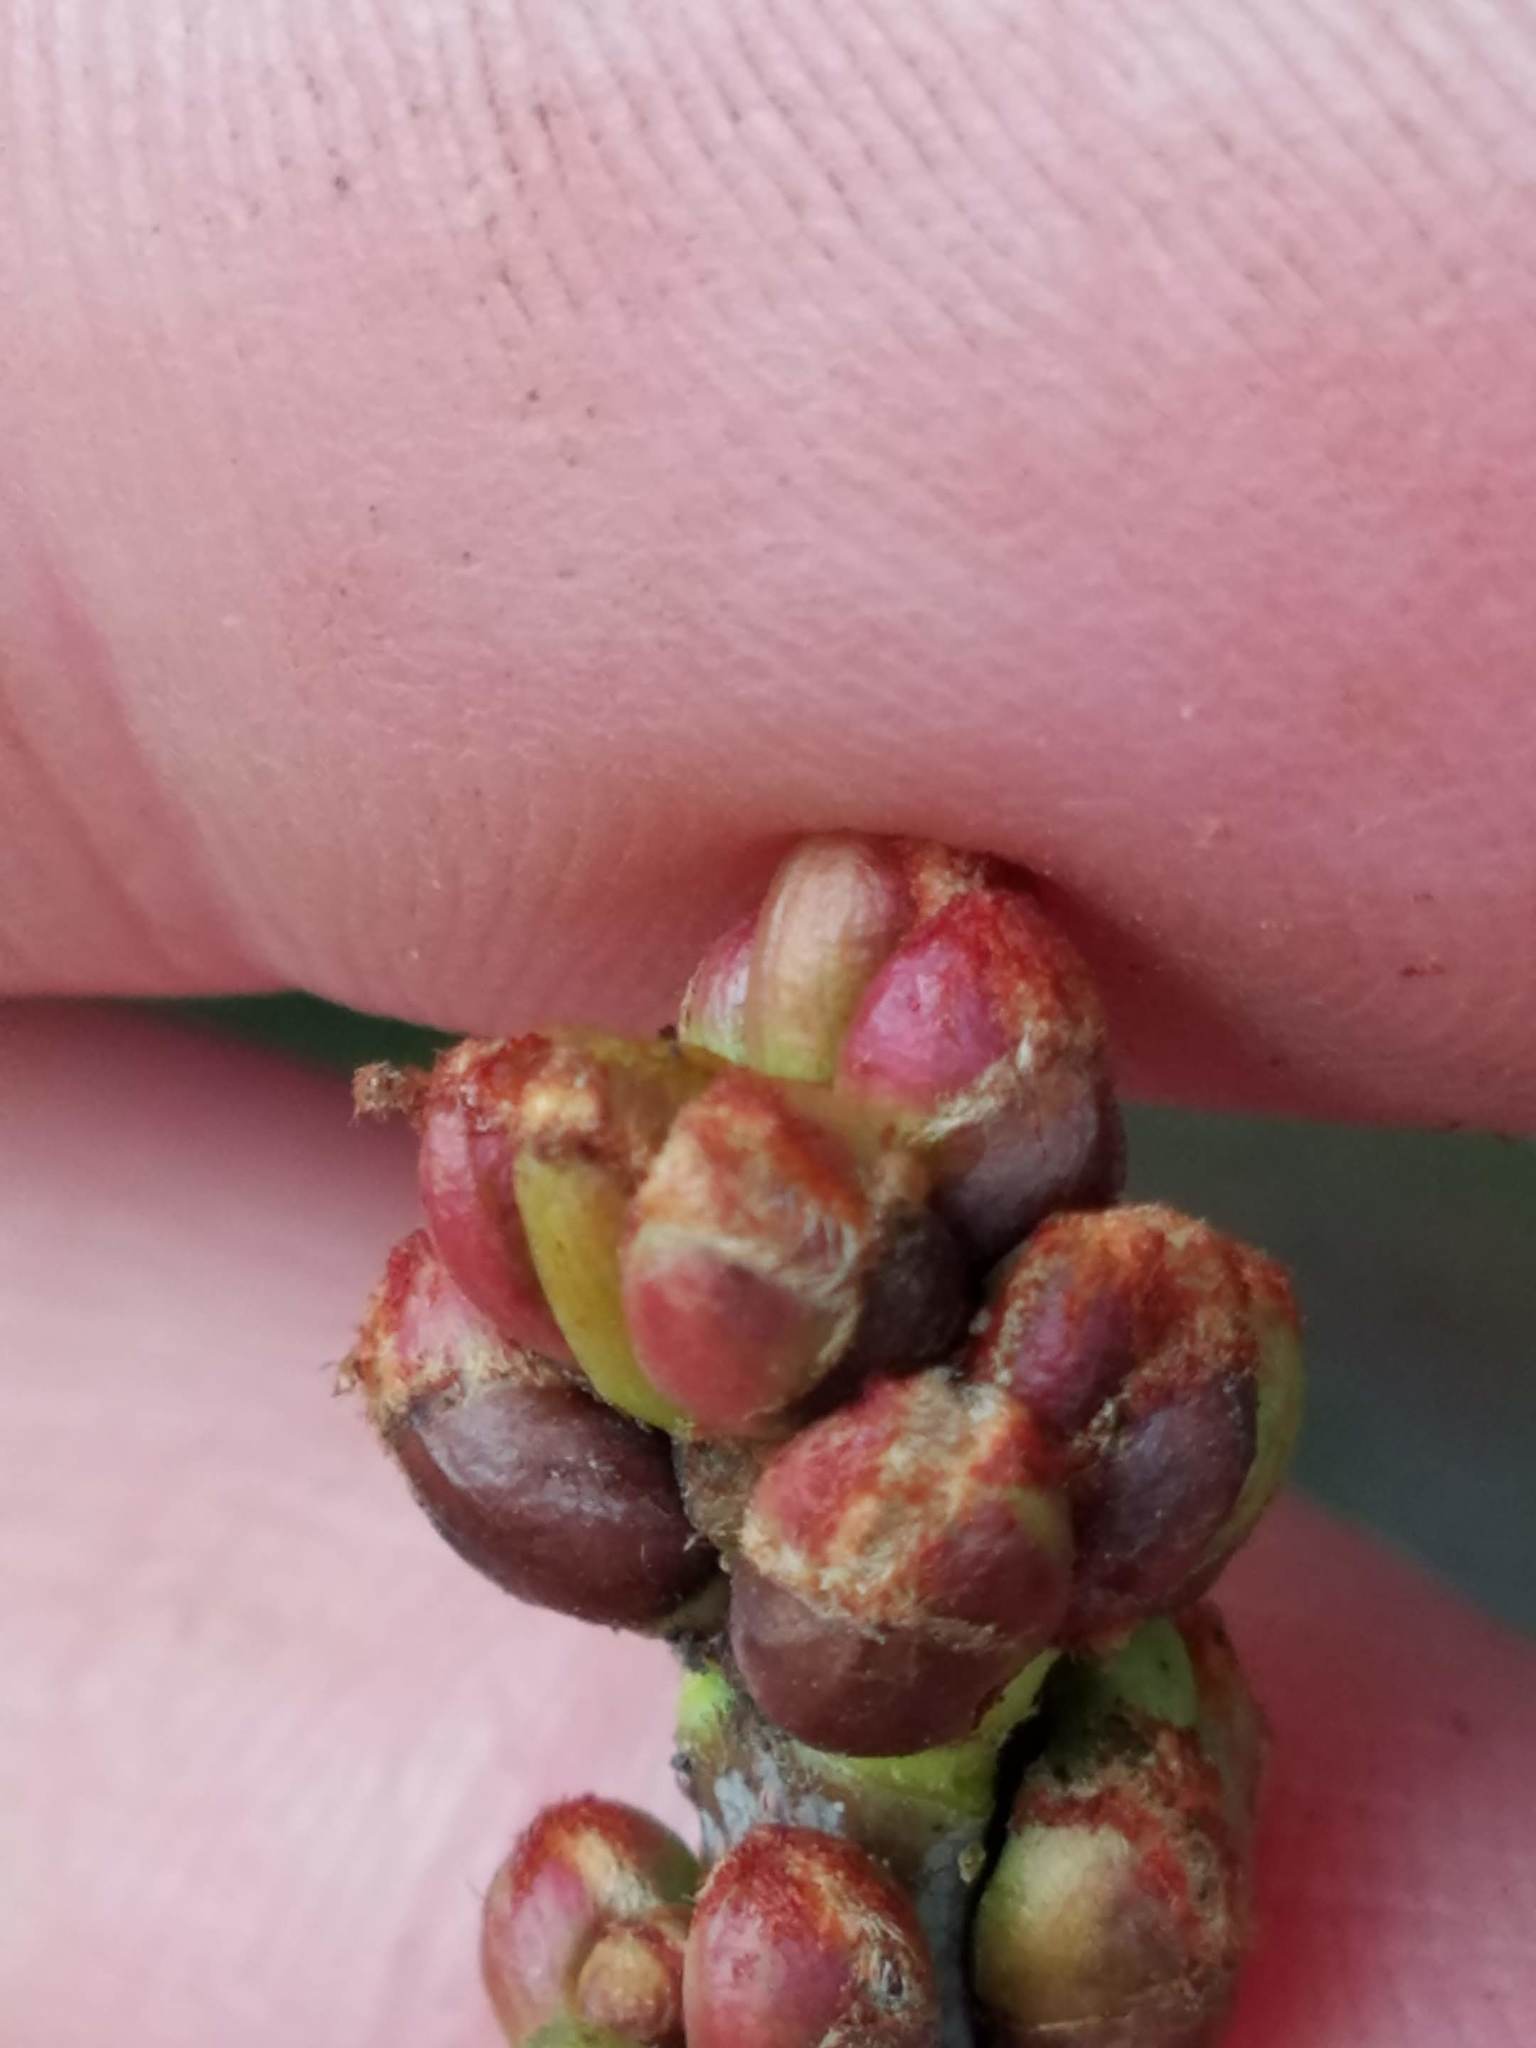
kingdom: Plantae
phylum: Tracheophyta
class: Magnoliopsida
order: Sapindales
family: Sapindaceae
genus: Acer
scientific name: Acer saccharinum
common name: Silver maple
